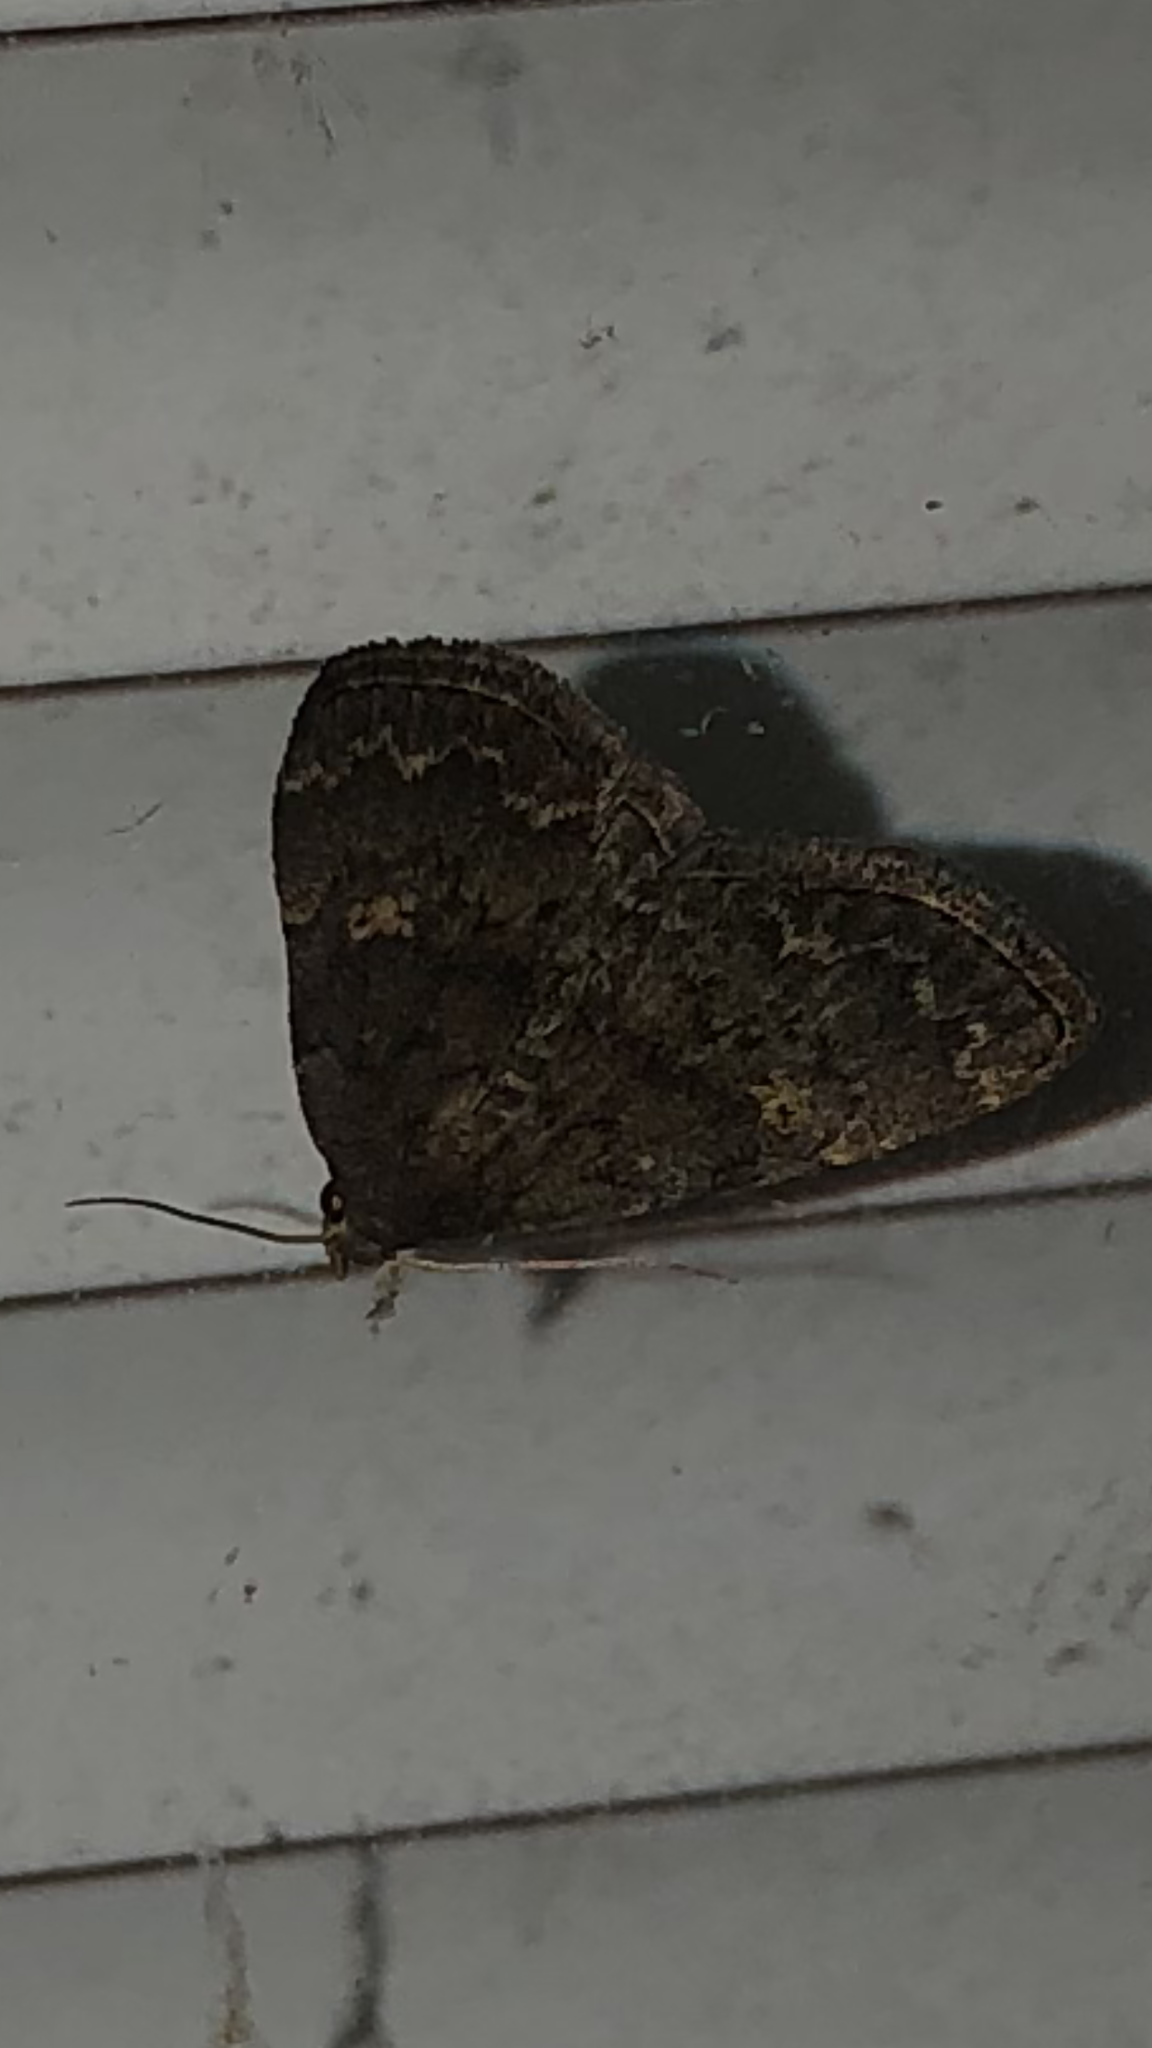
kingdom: Animalia
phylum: Arthropoda
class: Insecta
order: Lepidoptera
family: Erebidae
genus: Idia
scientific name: Idia aemula
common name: Common idia moth
